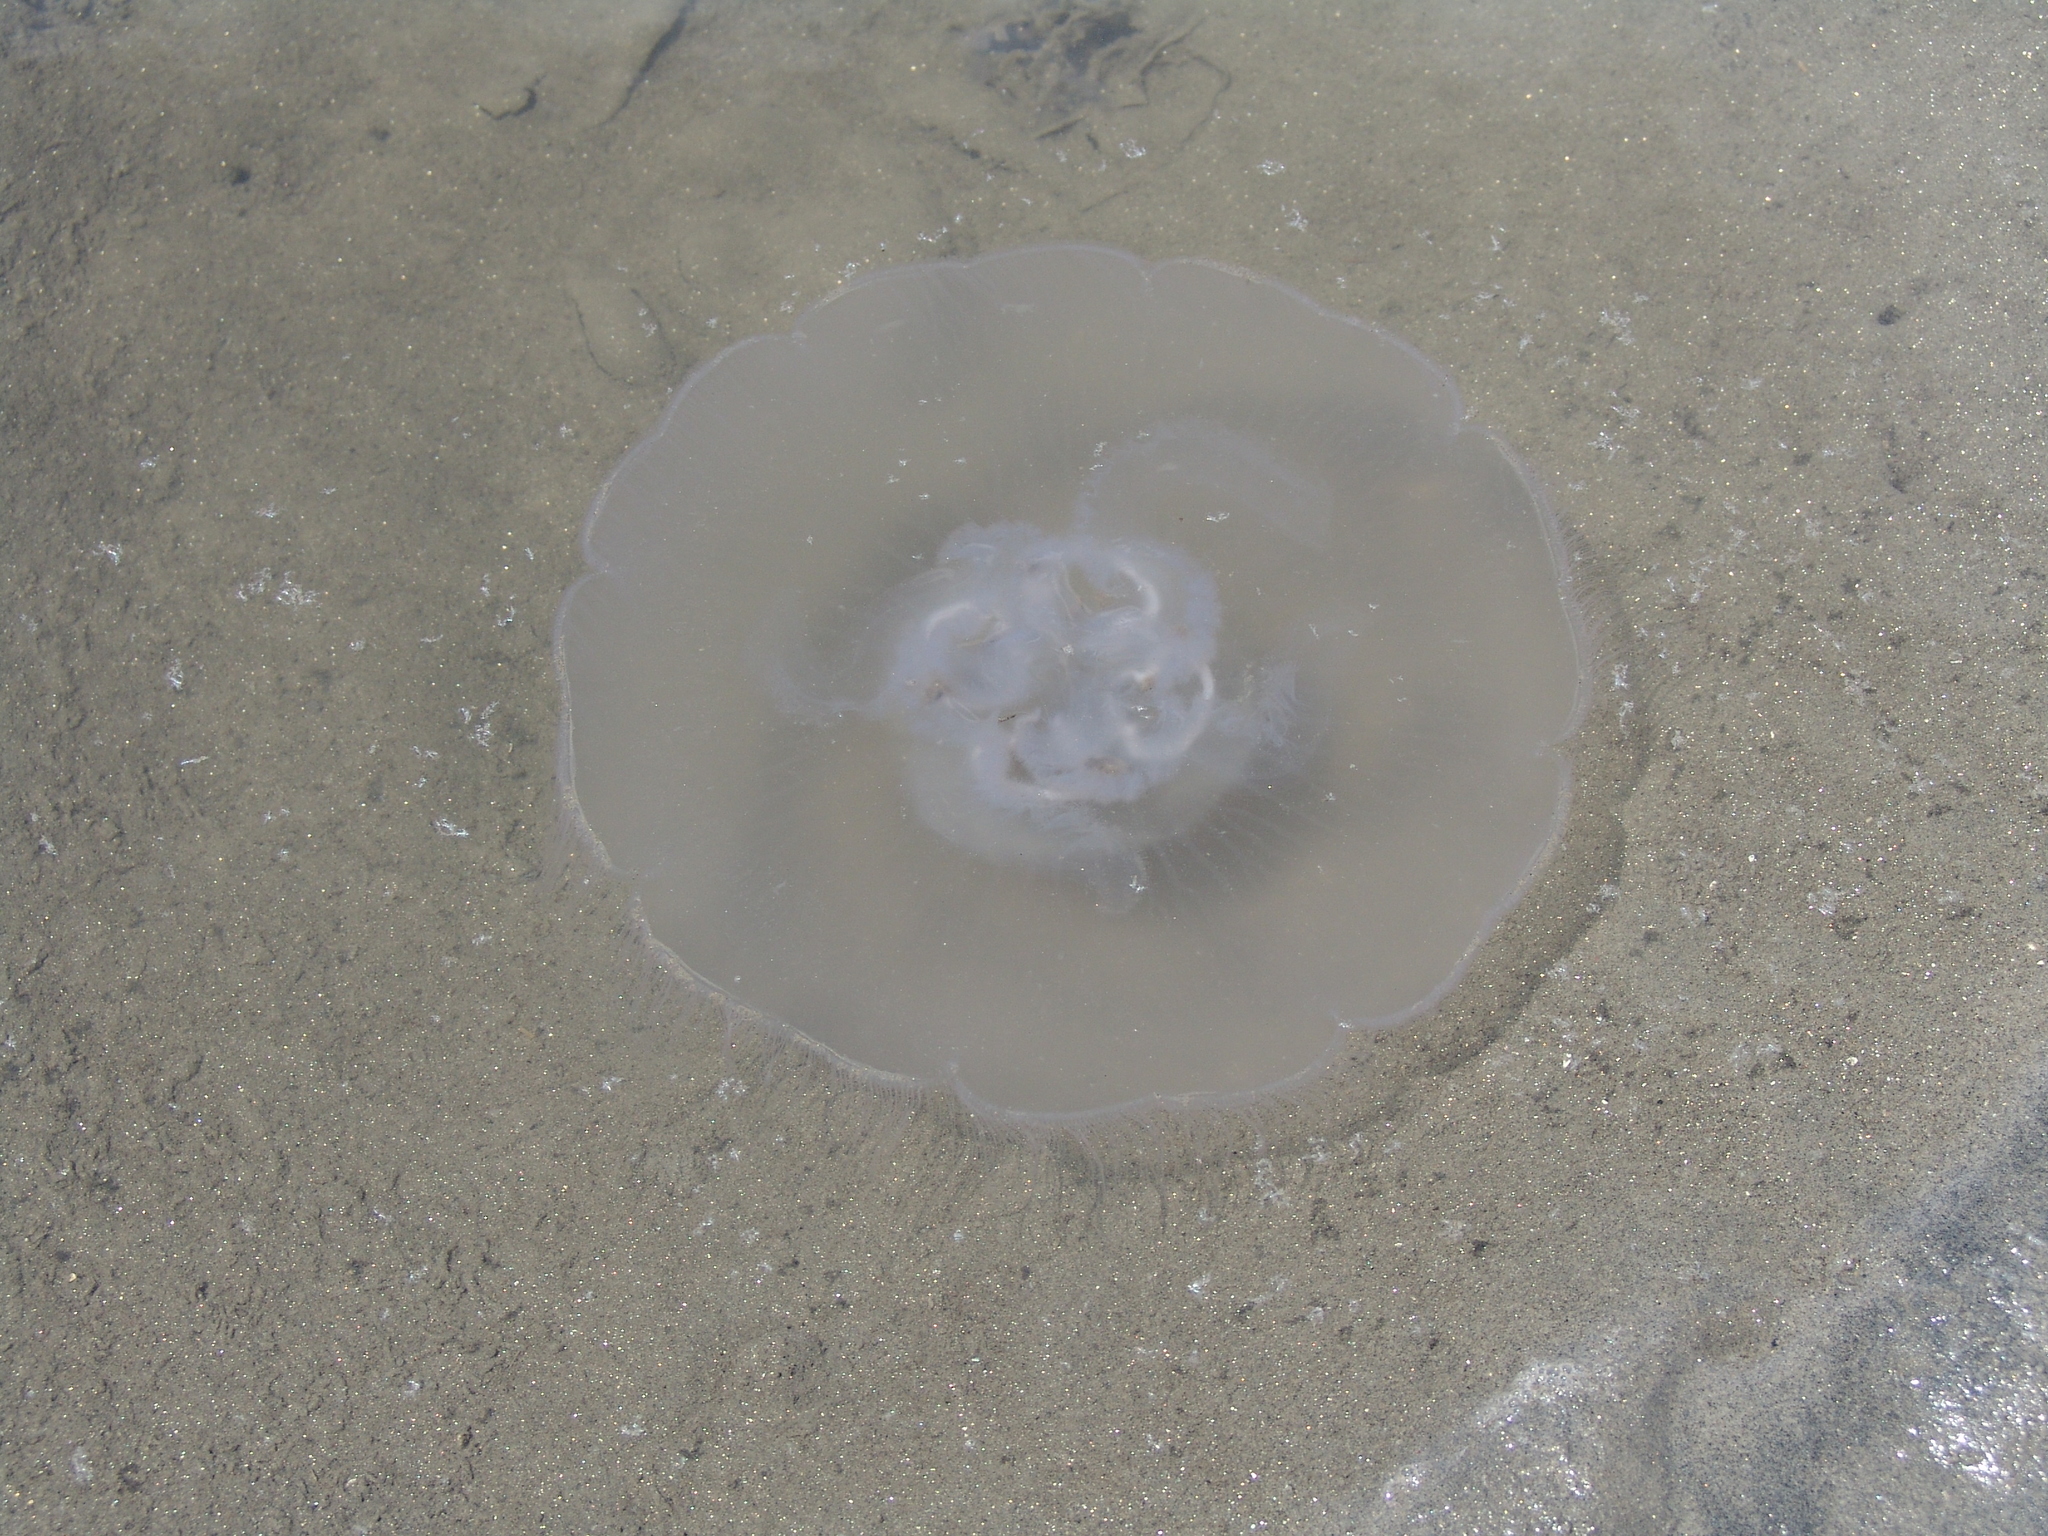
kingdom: Animalia
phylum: Cnidaria
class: Scyphozoa
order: Semaeostomeae
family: Ulmaridae
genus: Aurelia
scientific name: Aurelia
